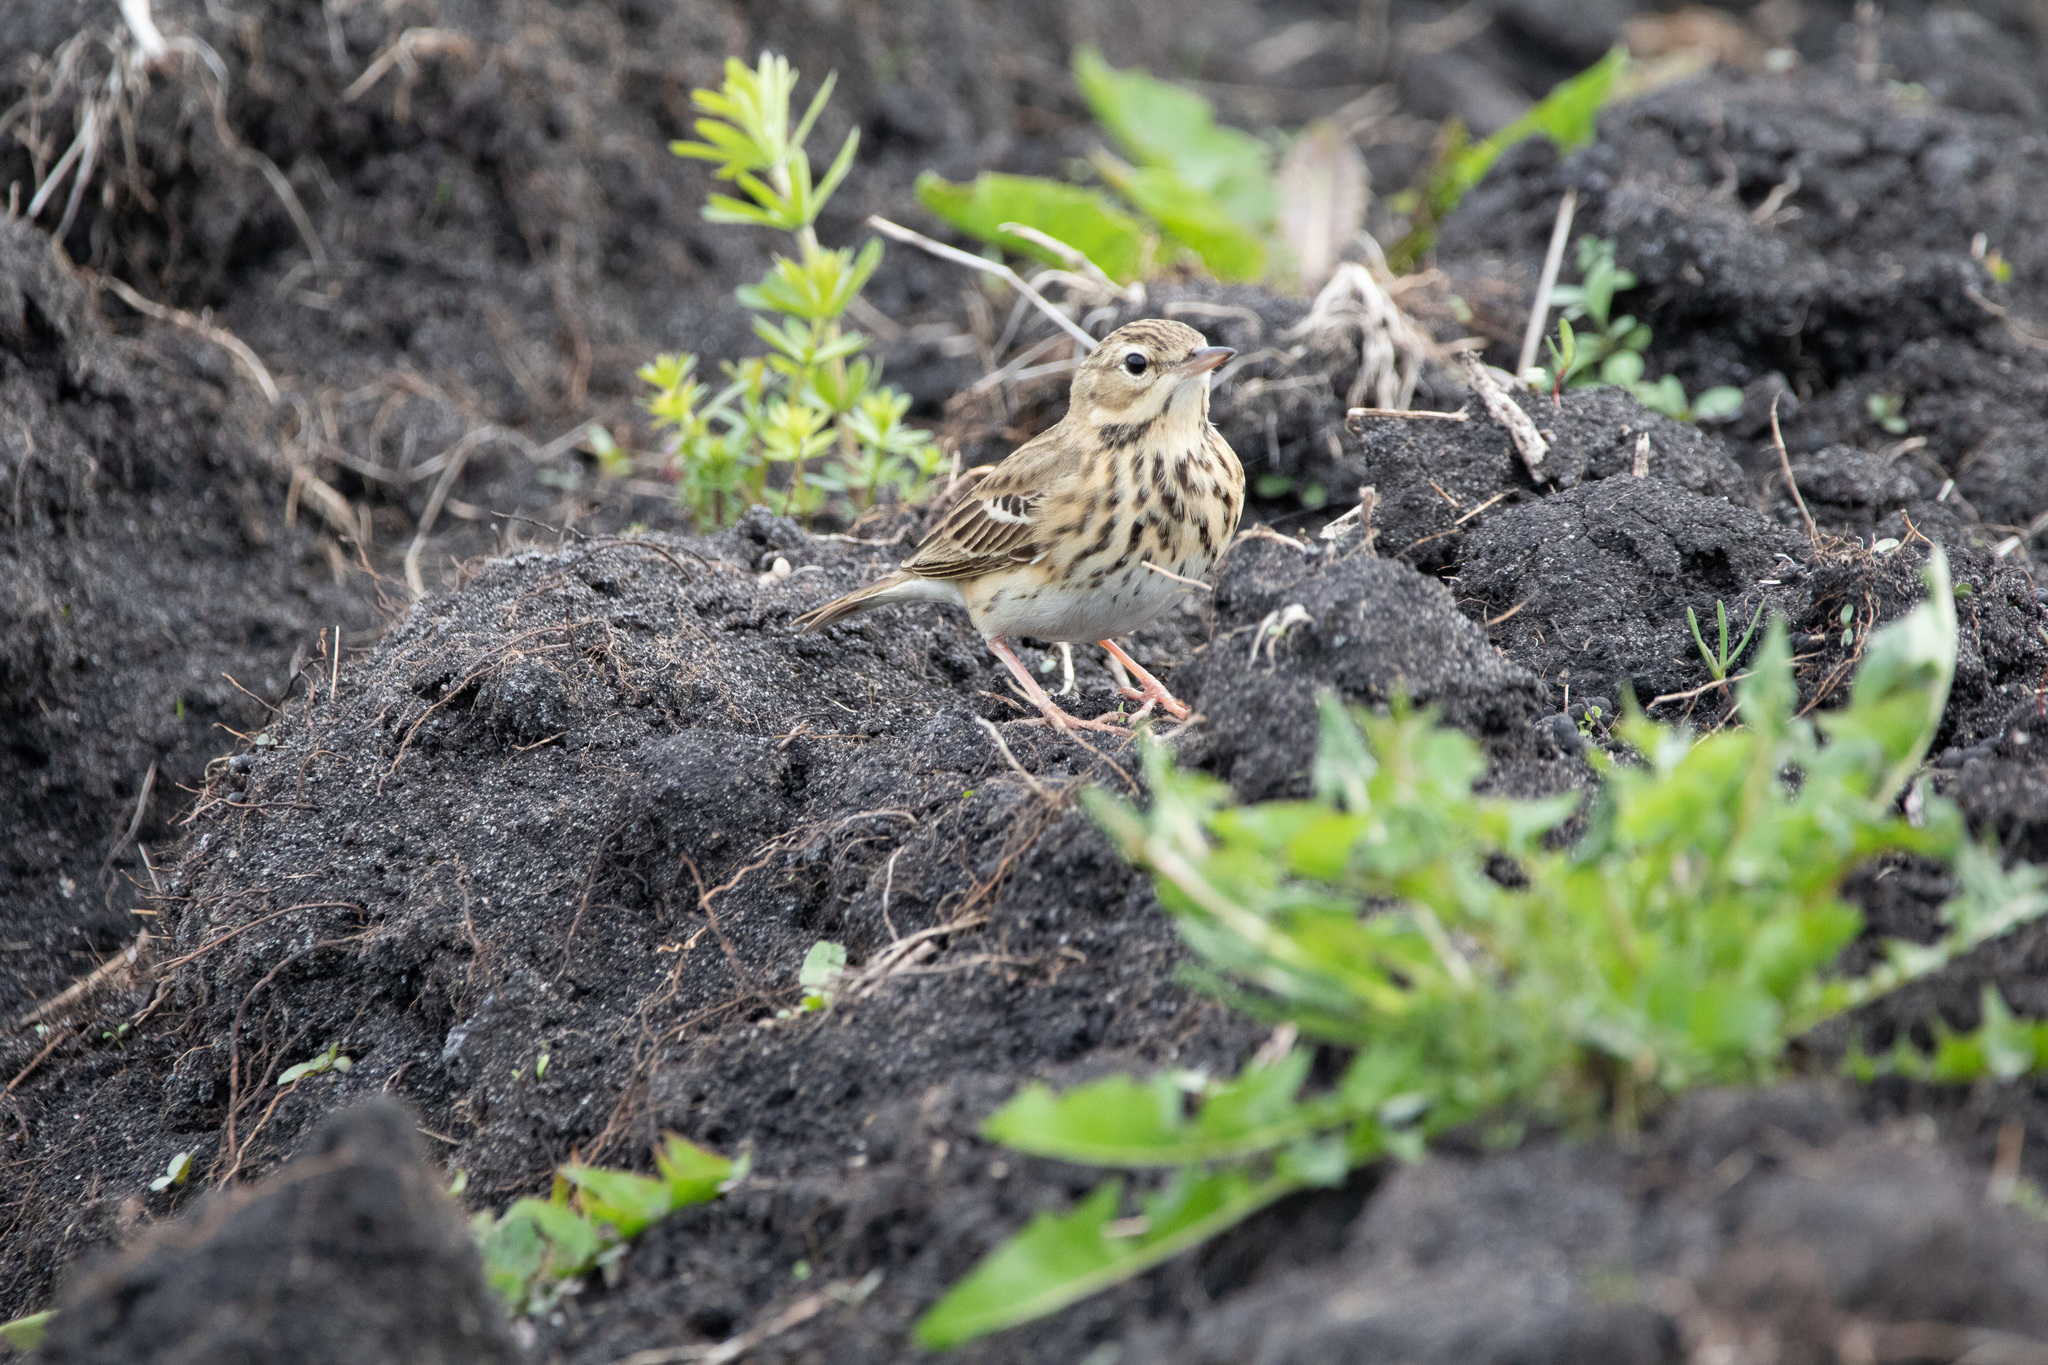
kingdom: Animalia
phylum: Chordata
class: Aves
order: Passeriformes
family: Motacillidae
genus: Anthus
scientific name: Anthus trivialis
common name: Tree pipit
